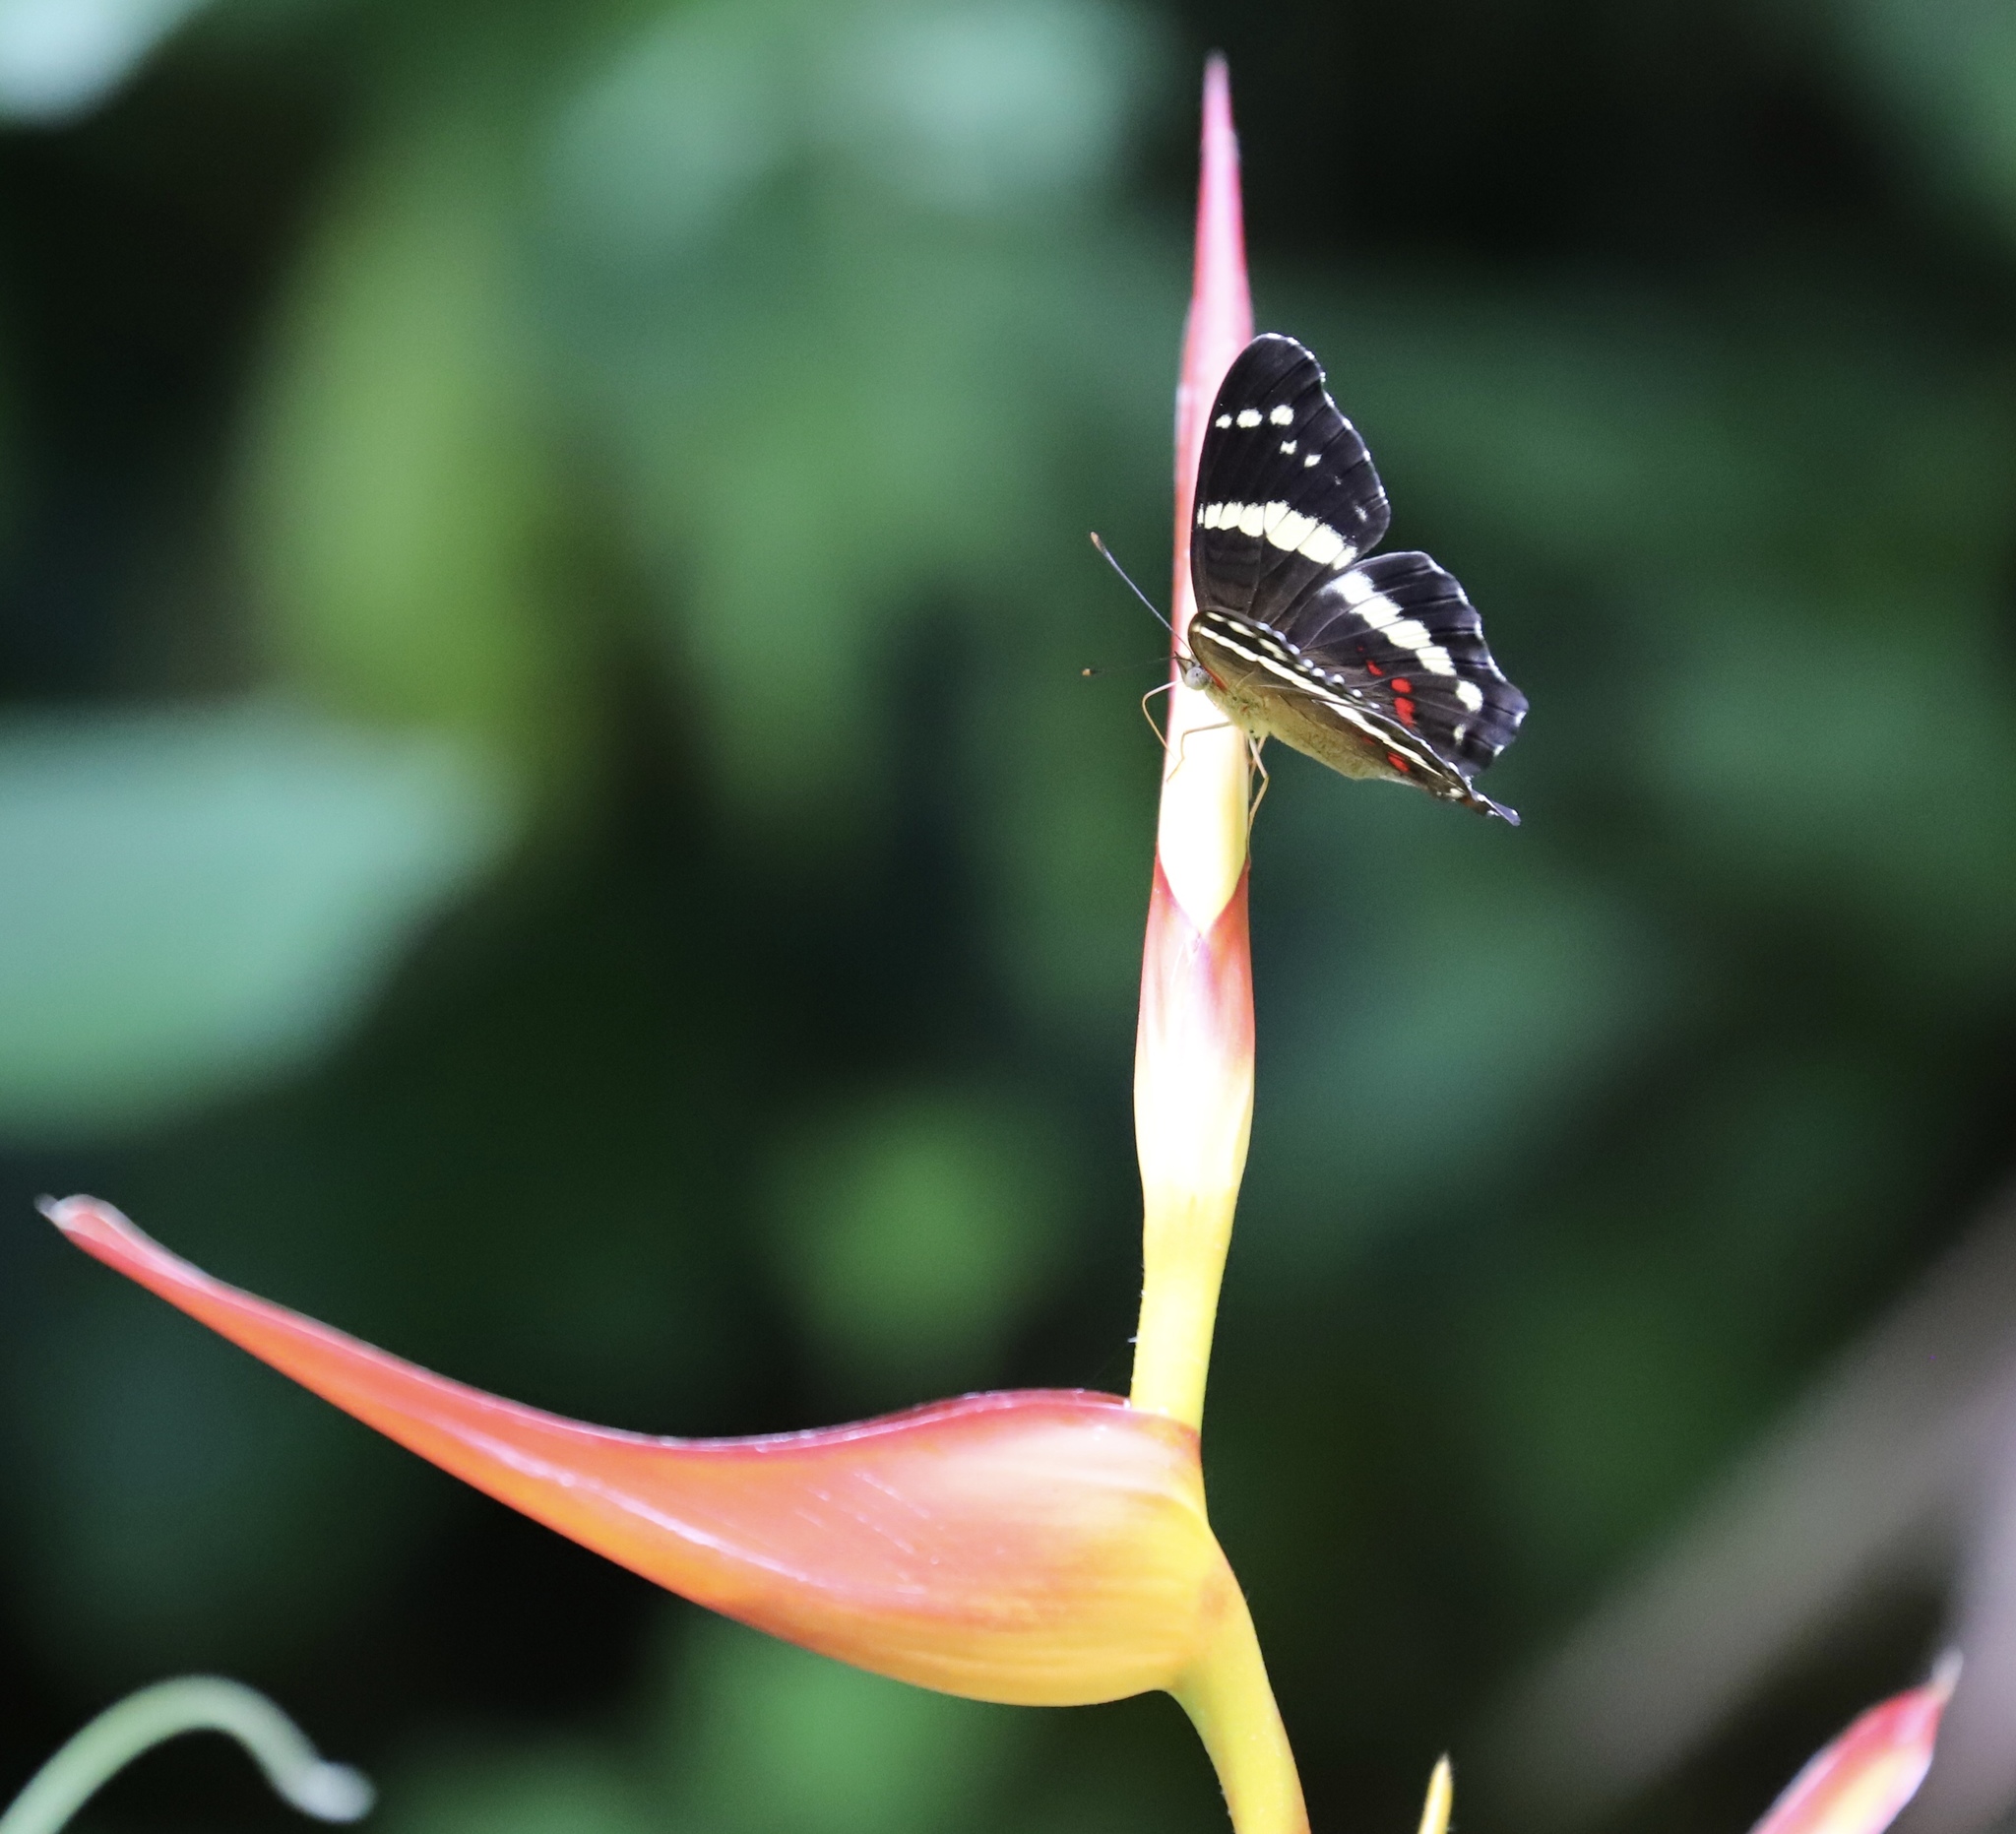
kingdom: Animalia
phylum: Arthropoda
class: Insecta
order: Lepidoptera
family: Nymphalidae
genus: Anartia
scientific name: Anartia fatima
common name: Banded peacock
